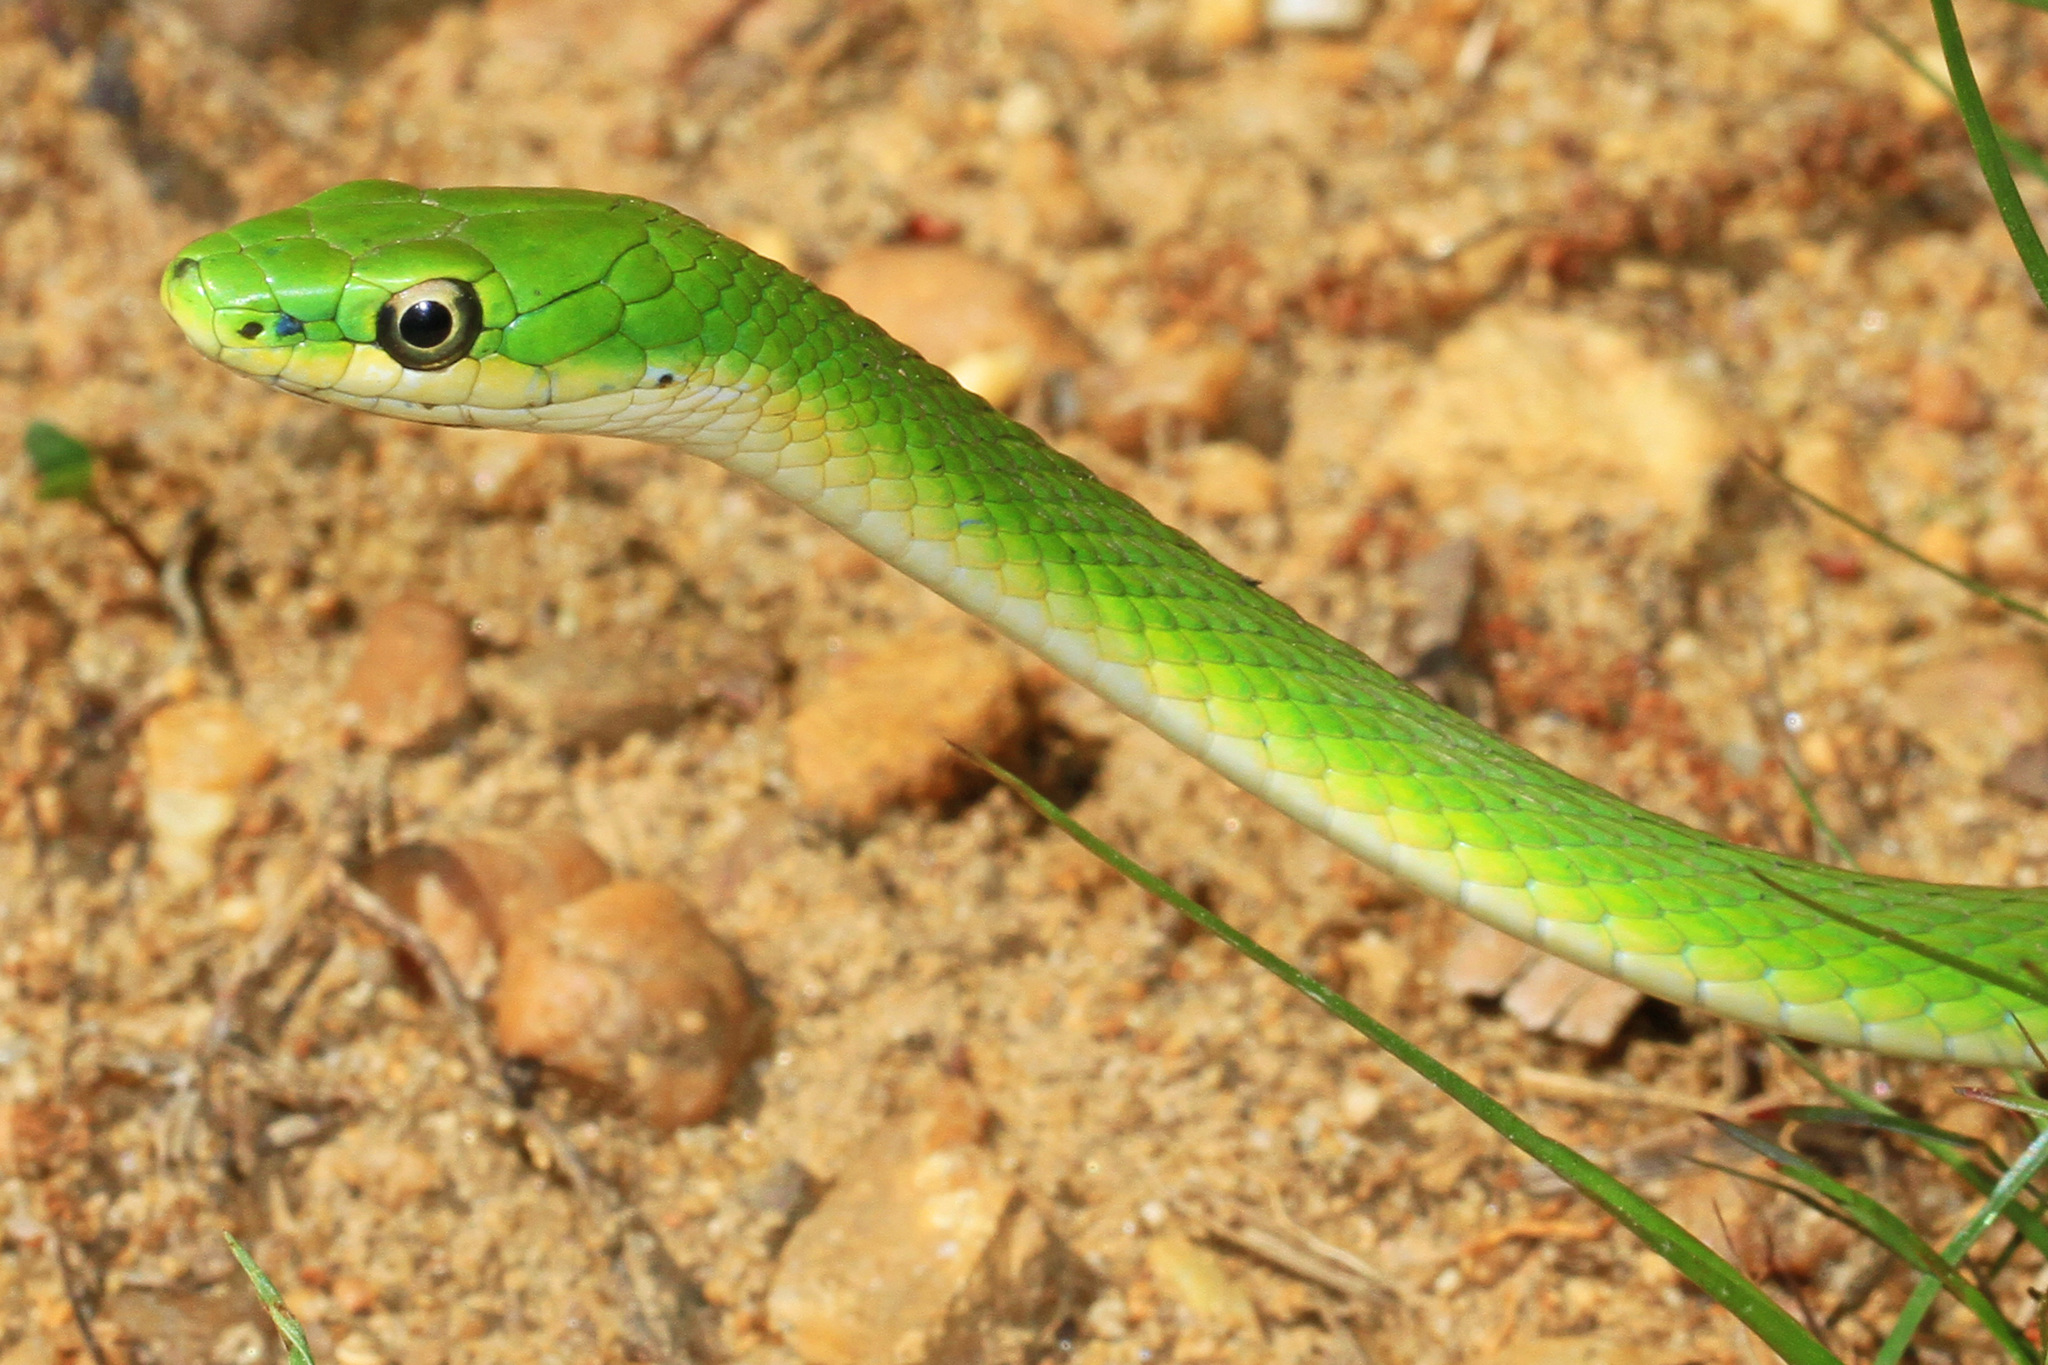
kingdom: Animalia
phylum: Chordata
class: Squamata
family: Colubridae
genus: Opheodrys
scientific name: Opheodrys aestivus
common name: Rough greensnake
